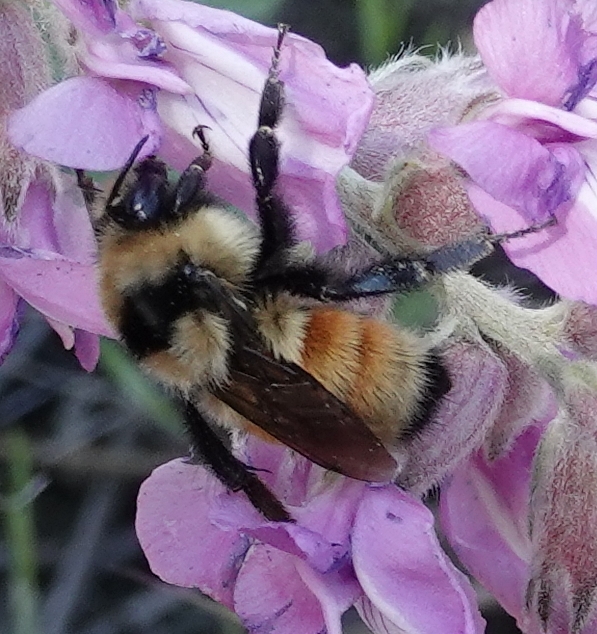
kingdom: Animalia
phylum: Arthropoda
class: Insecta
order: Hymenoptera
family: Apidae
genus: Bombus
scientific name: Bombus huntii
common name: Hunt bumble bee
